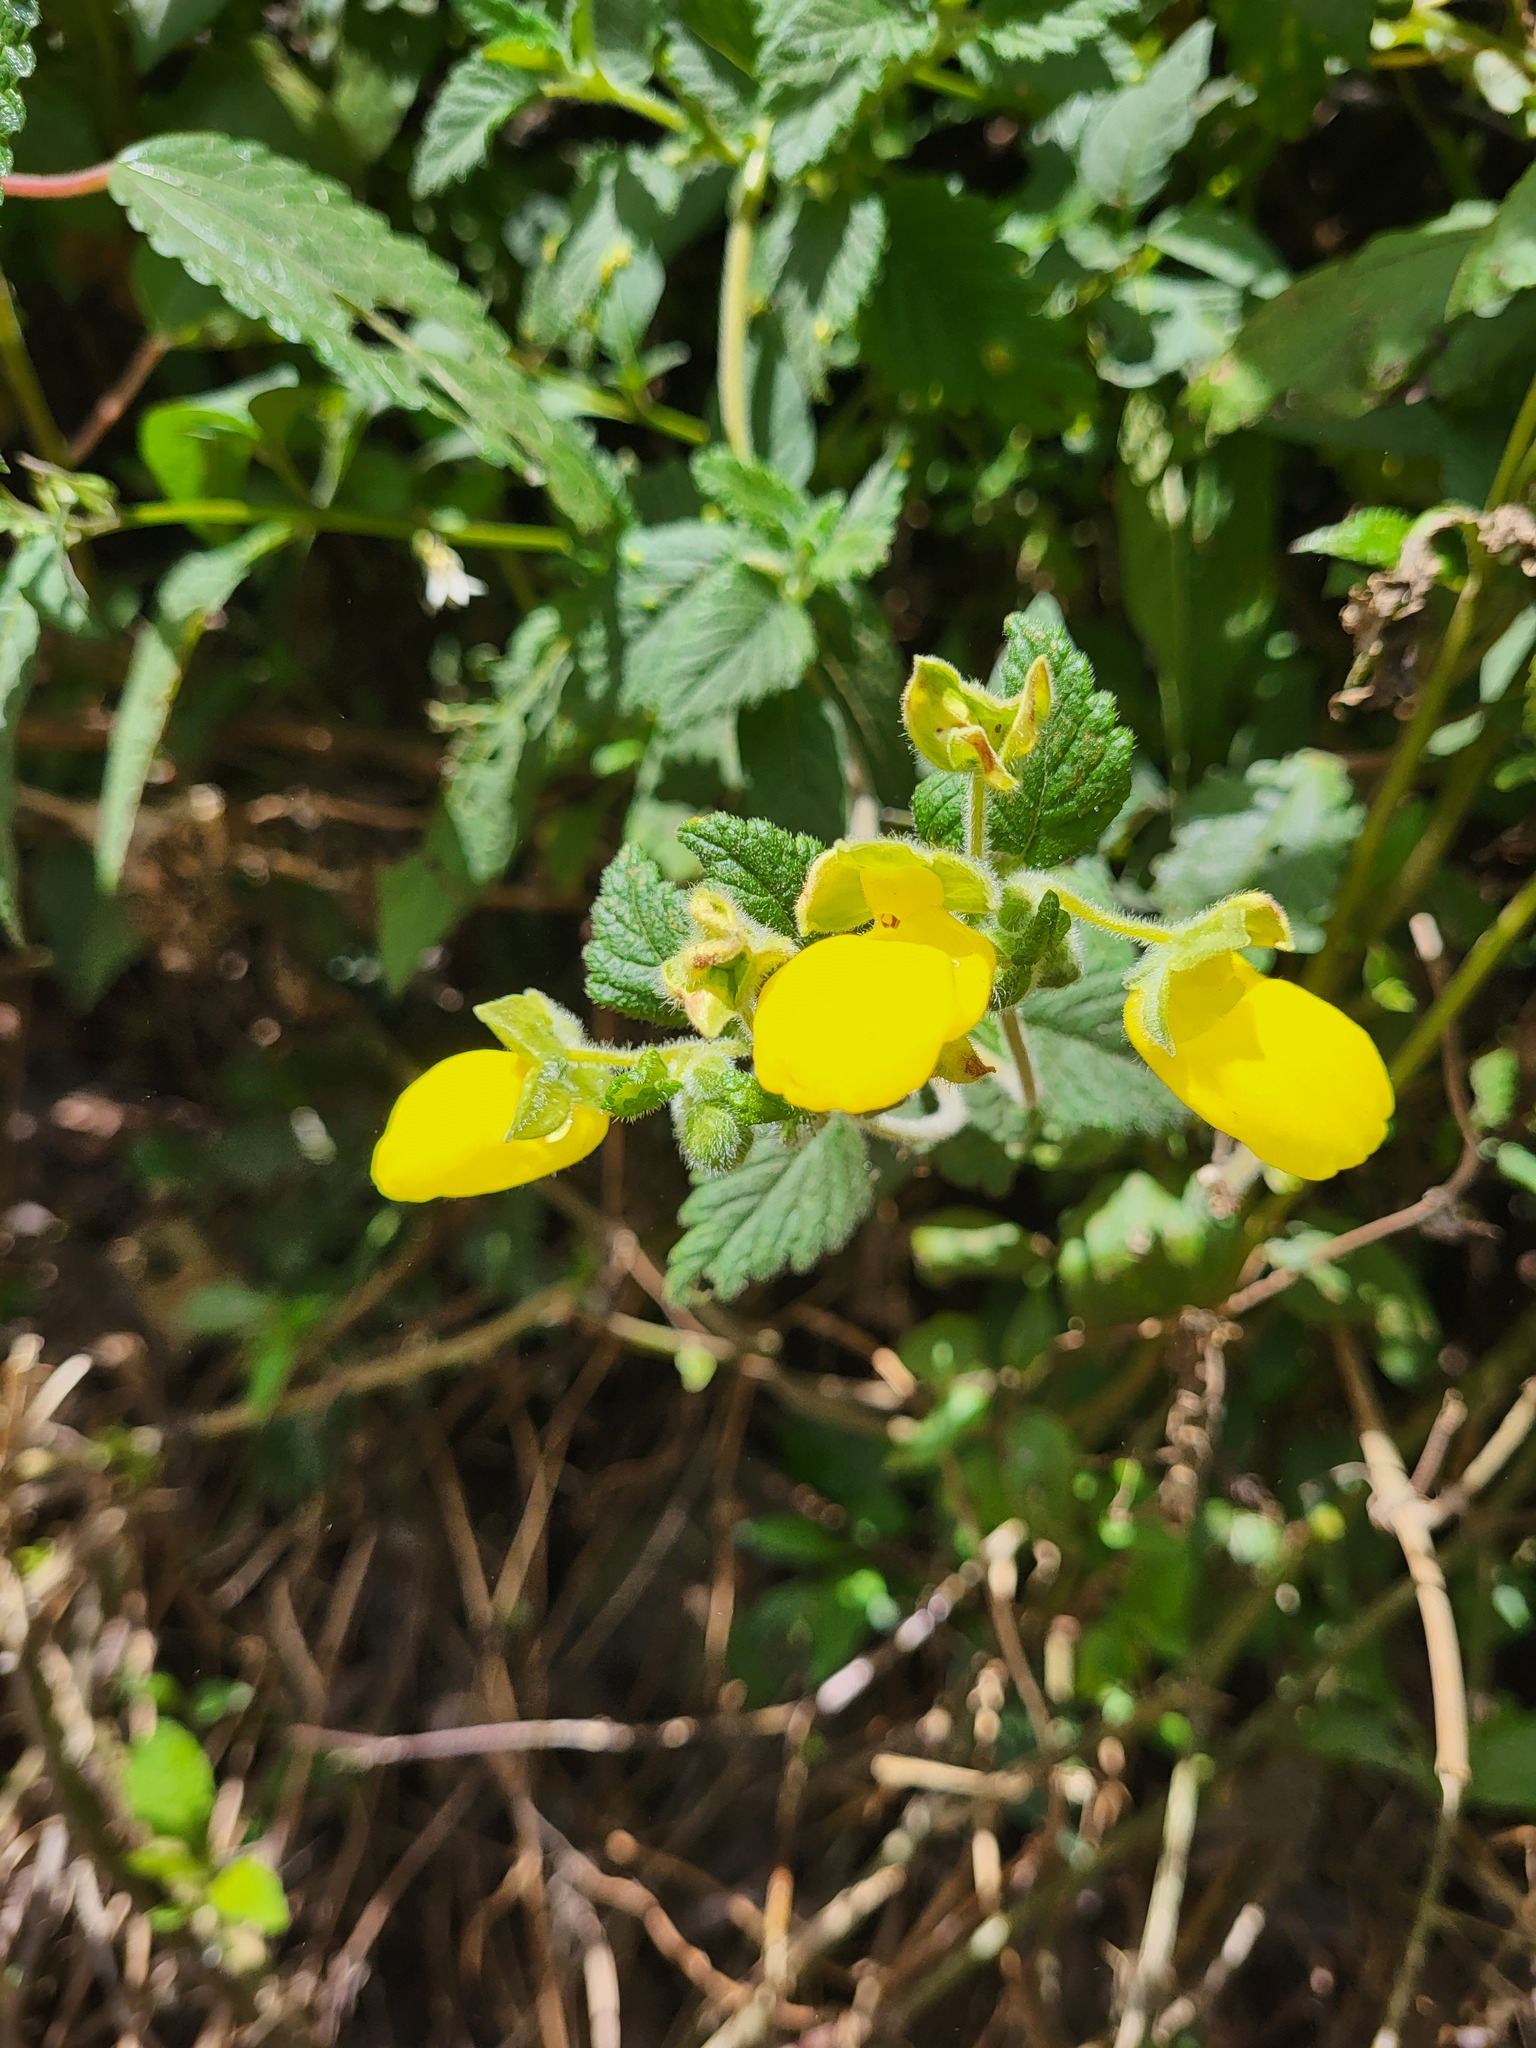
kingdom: Plantae
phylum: Tracheophyta
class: Magnoliopsida
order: Lamiales
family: Calceolariaceae
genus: Calceolaria
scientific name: Calceolaria lamiifolia
